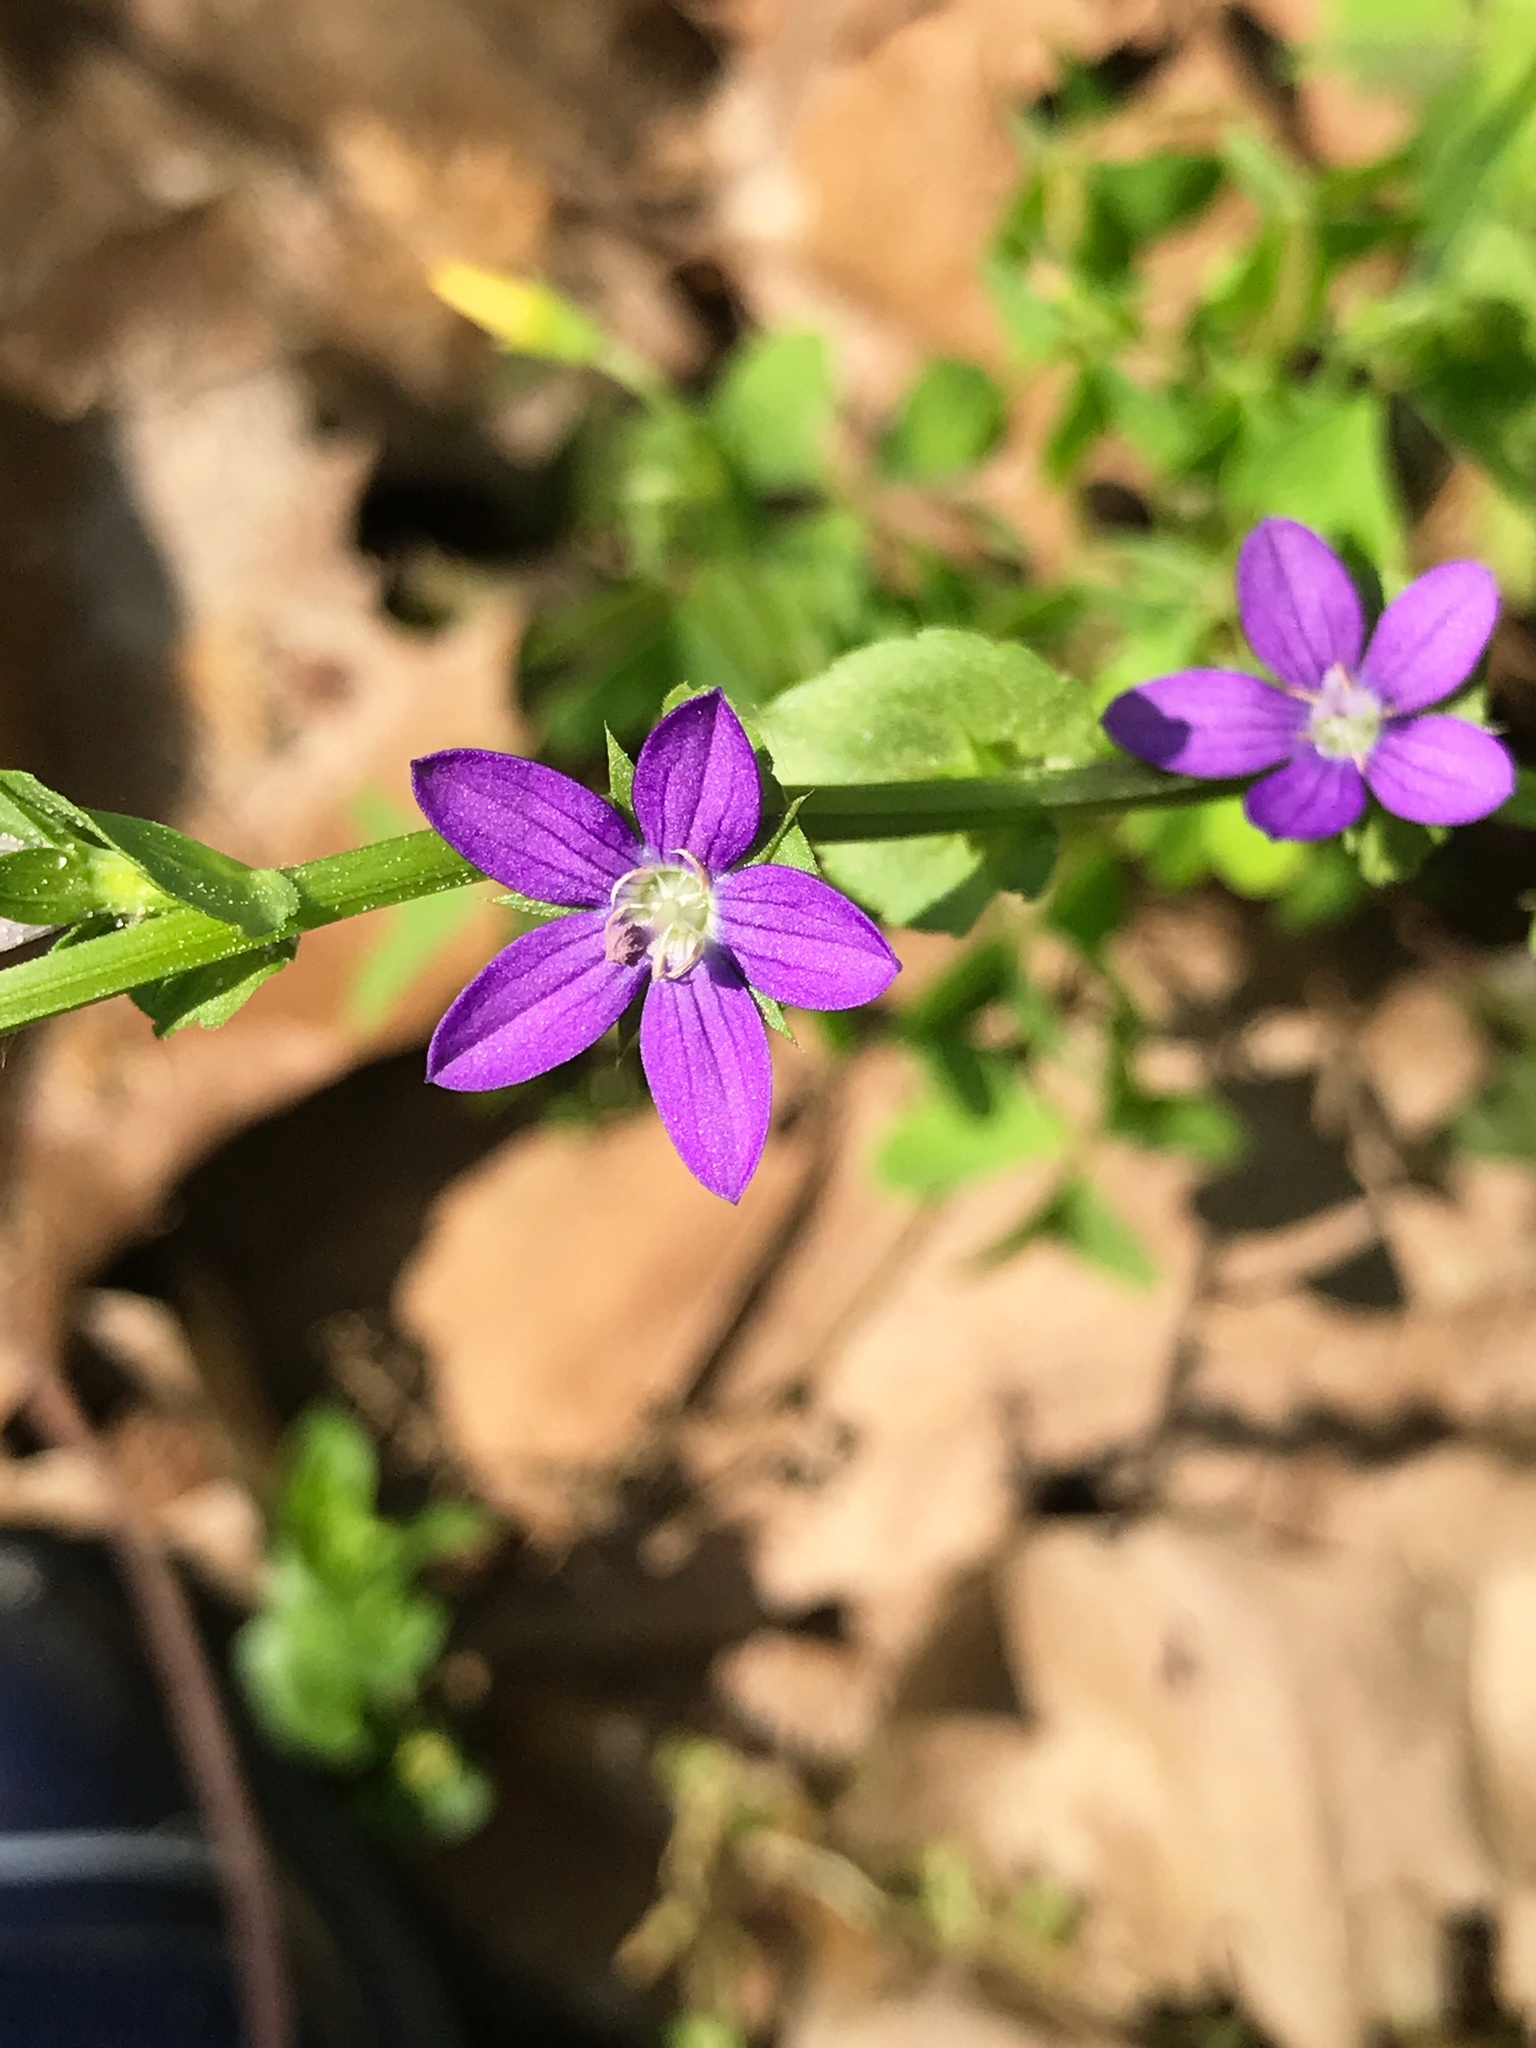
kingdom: Plantae
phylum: Tracheophyta
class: Magnoliopsida
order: Asterales
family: Campanulaceae
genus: Triodanis
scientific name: Triodanis perfoliata
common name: Clasping venus' looking-glass
